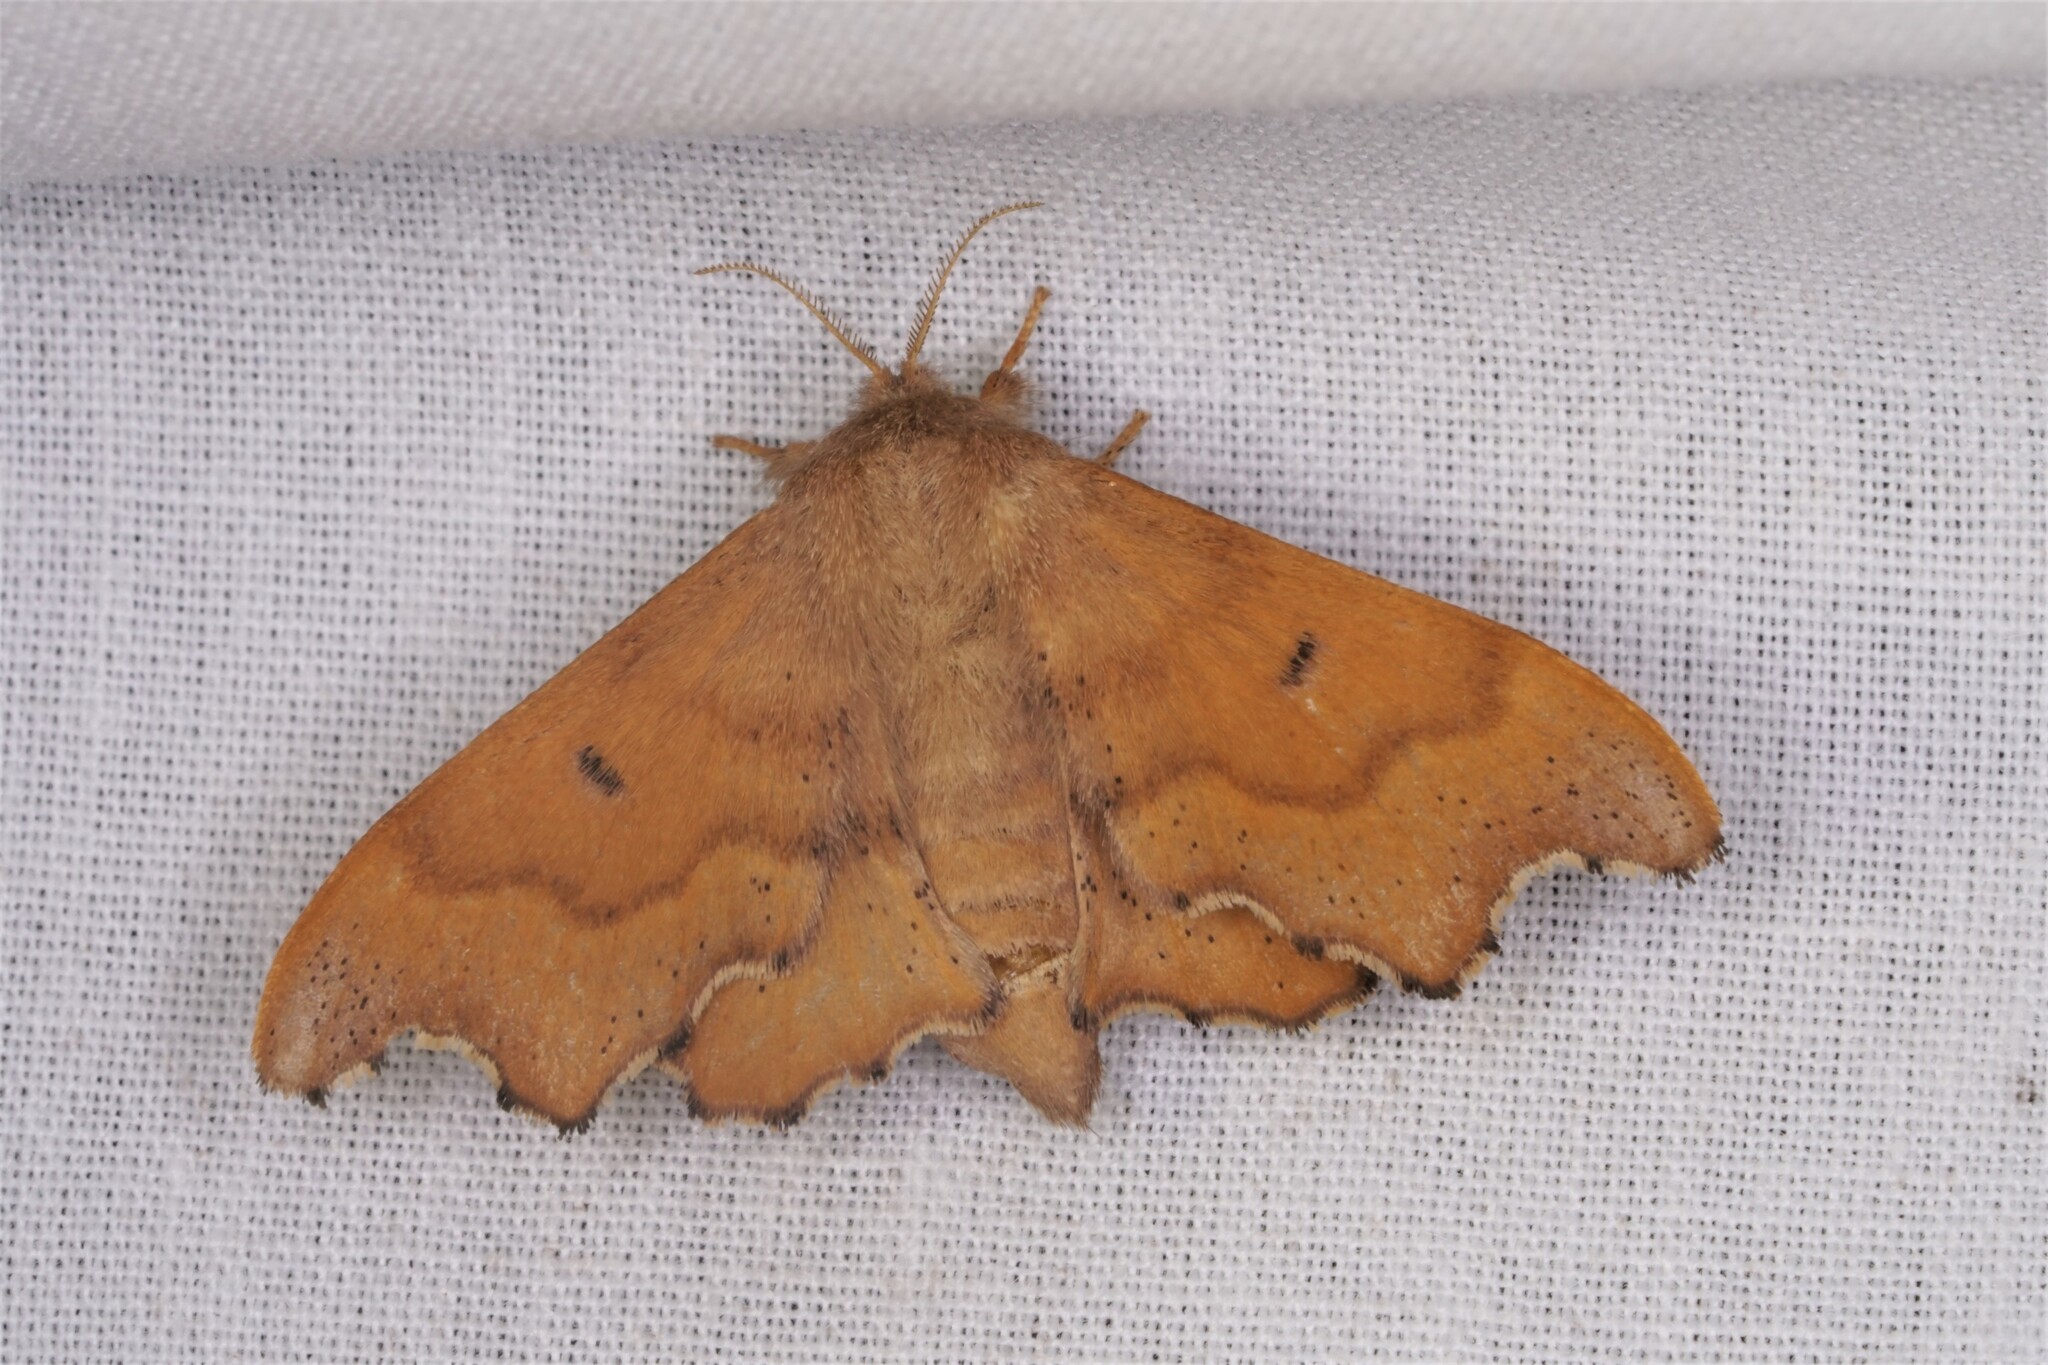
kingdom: Animalia
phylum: Arthropoda
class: Insecta
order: Lepidoptera
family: Mimallonidae
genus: Lacosoma
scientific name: Lacosoma chiridota
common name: Scalloped sack-bearer moth
